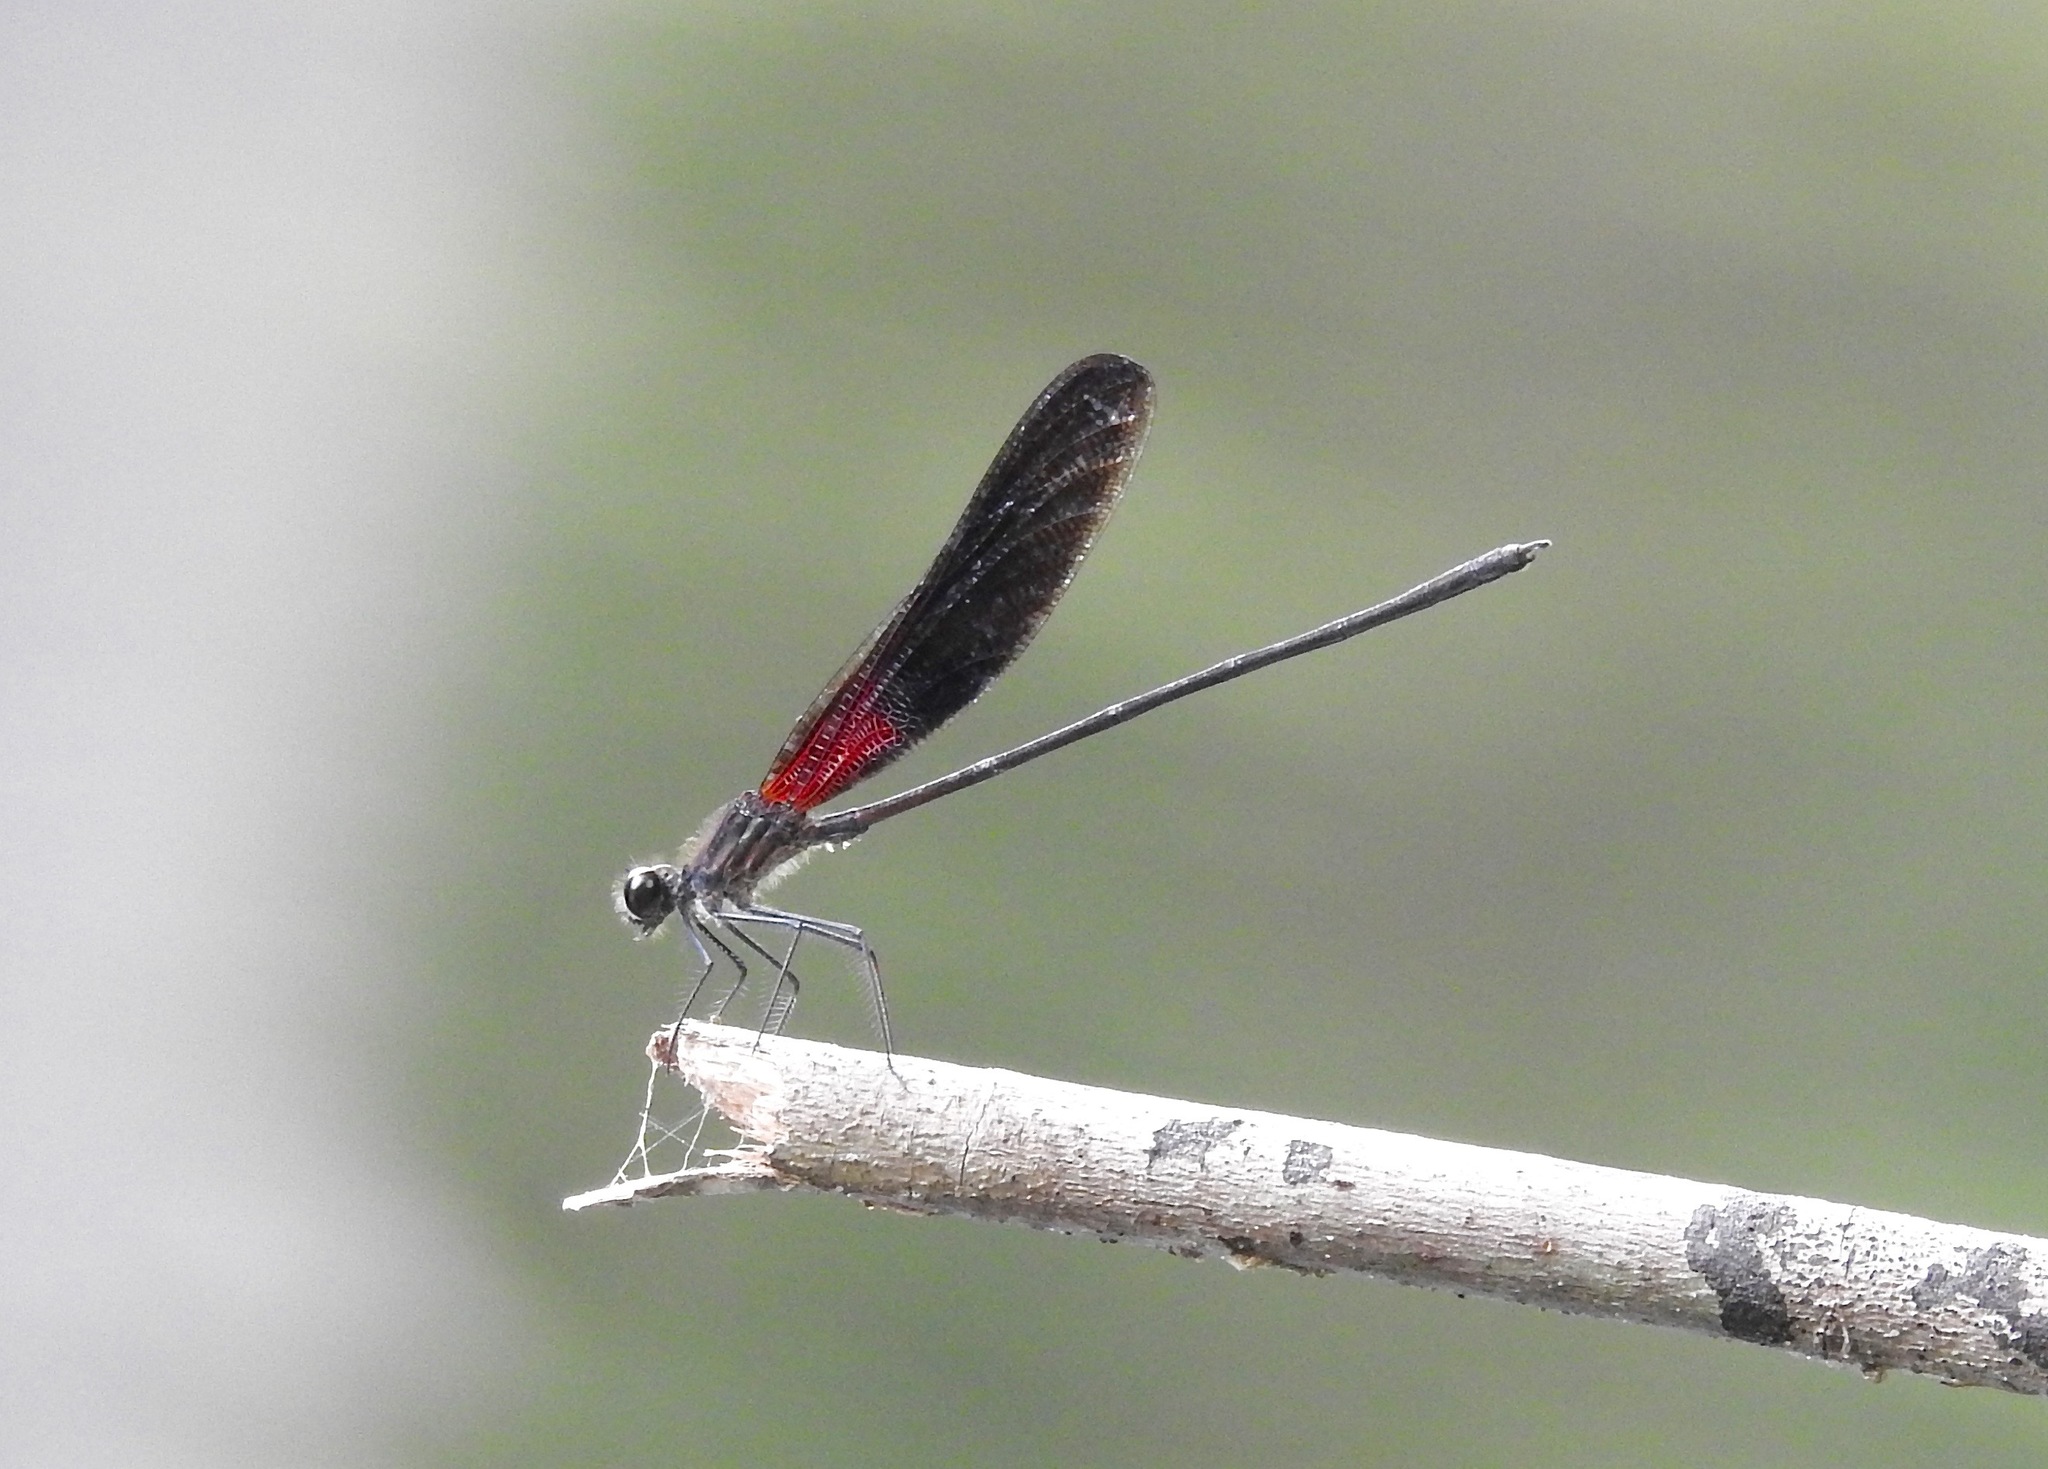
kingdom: Animalia
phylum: Arthropoda
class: Insecta
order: Odonata
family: Calopterygidae
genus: Hetaerina
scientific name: Hetaerina titia
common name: Smoky rubyspot
